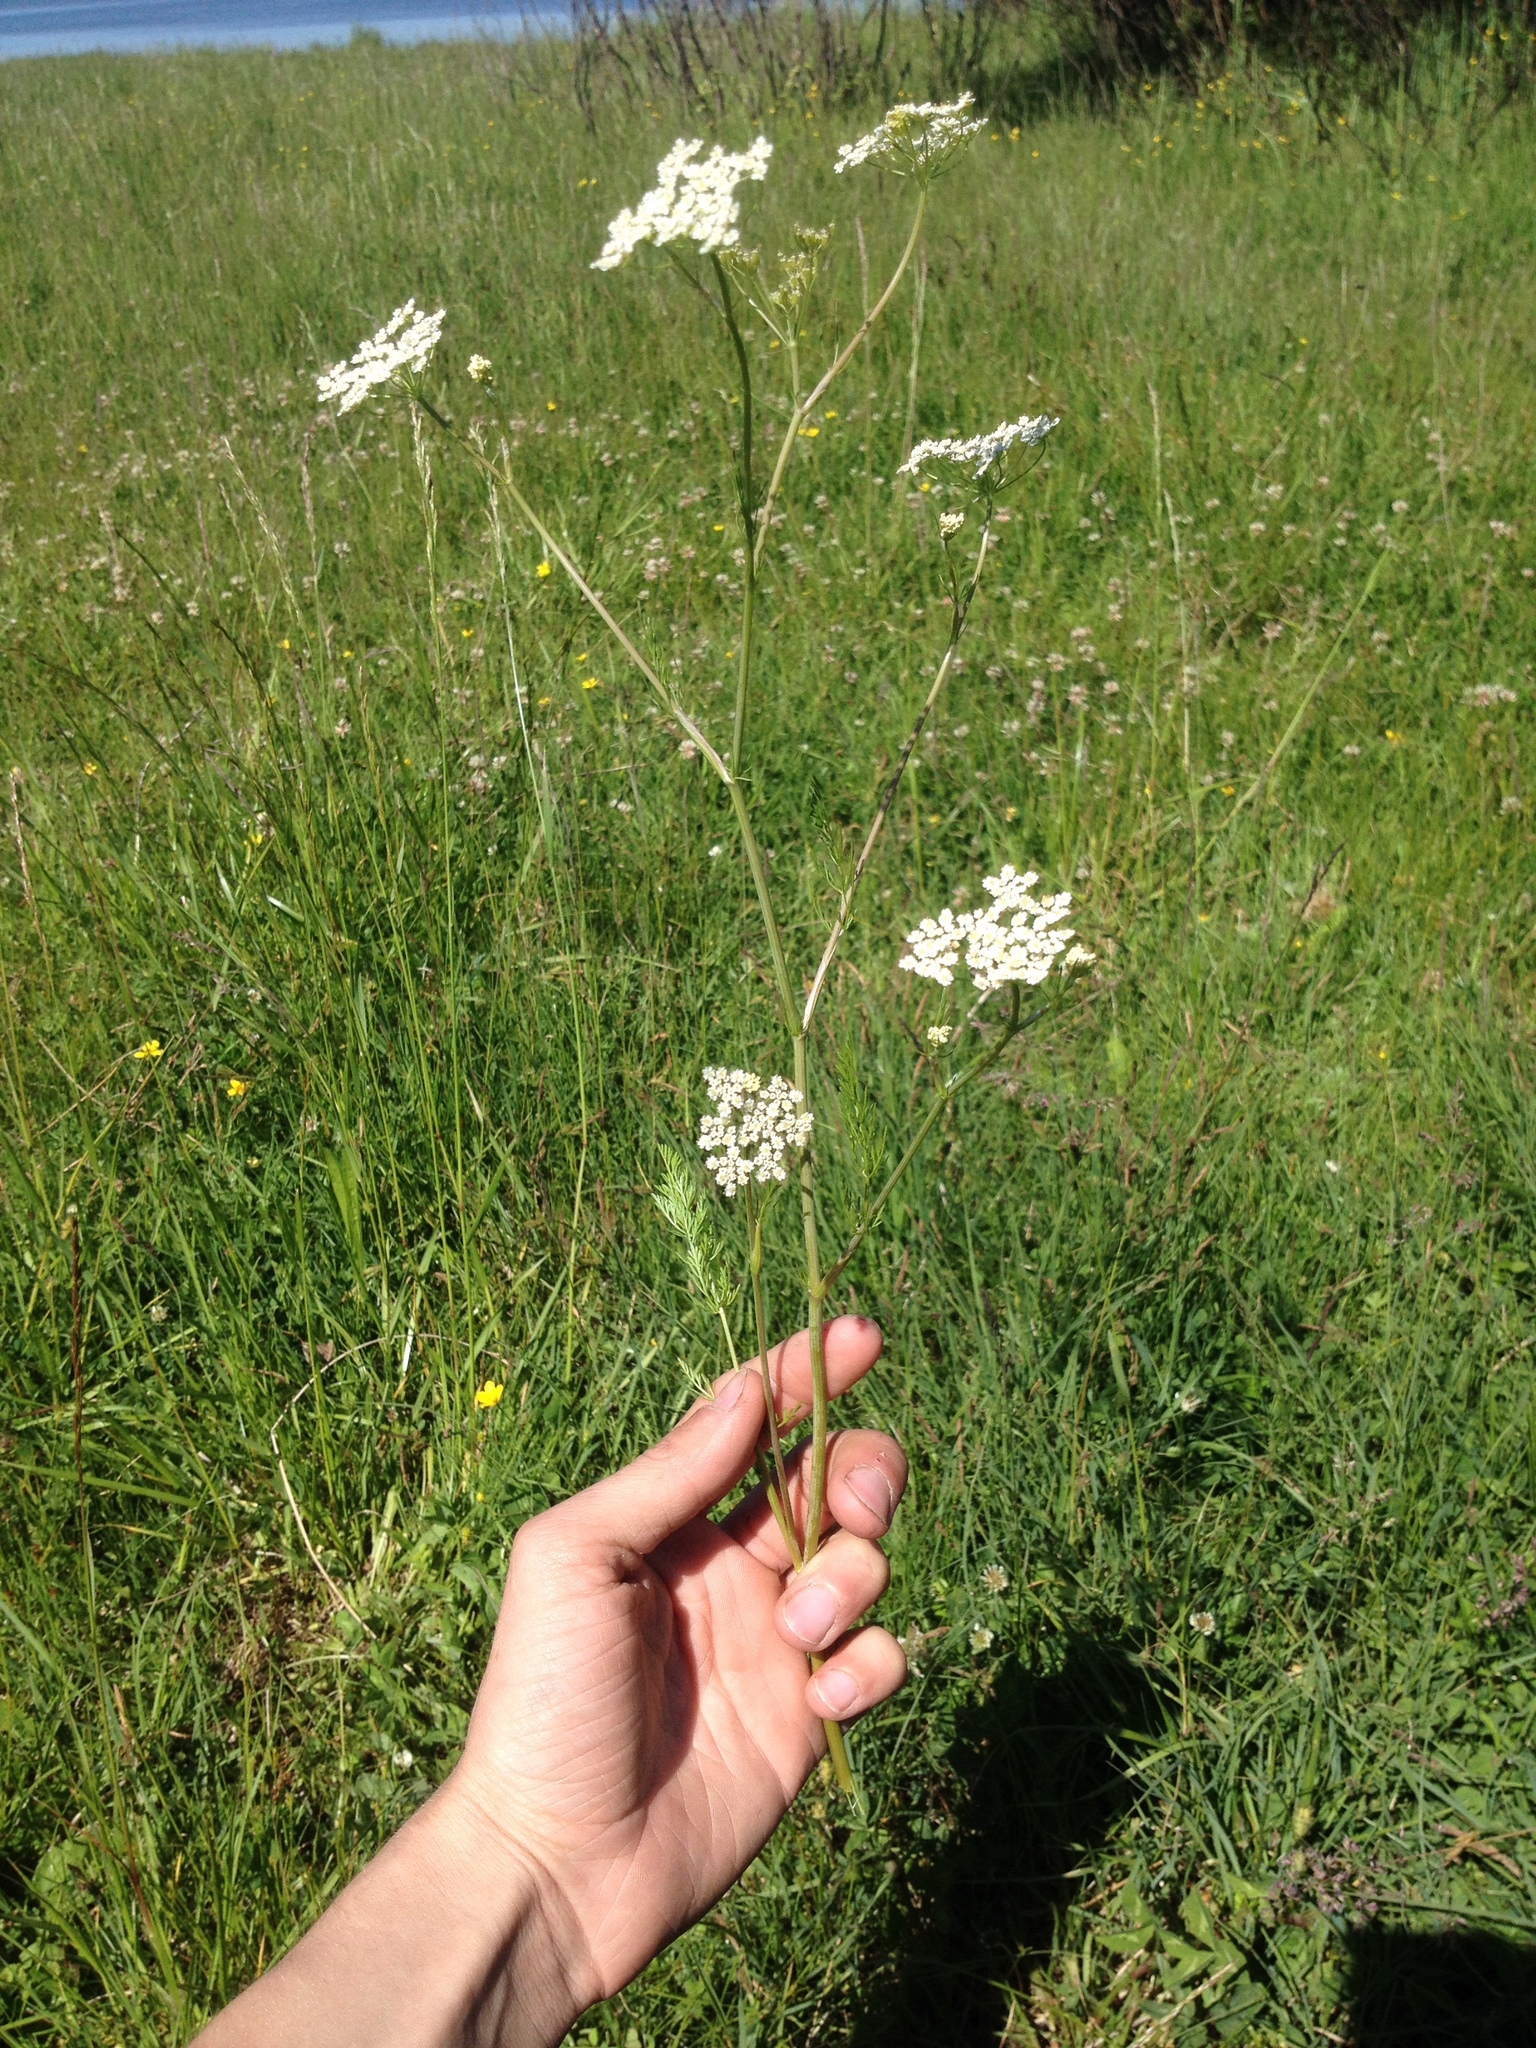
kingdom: Plantae
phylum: Tracheophyta
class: Magnoliopsida
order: Apiales
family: Apiaceae
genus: Carum
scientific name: Carum carvi
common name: Caraway
